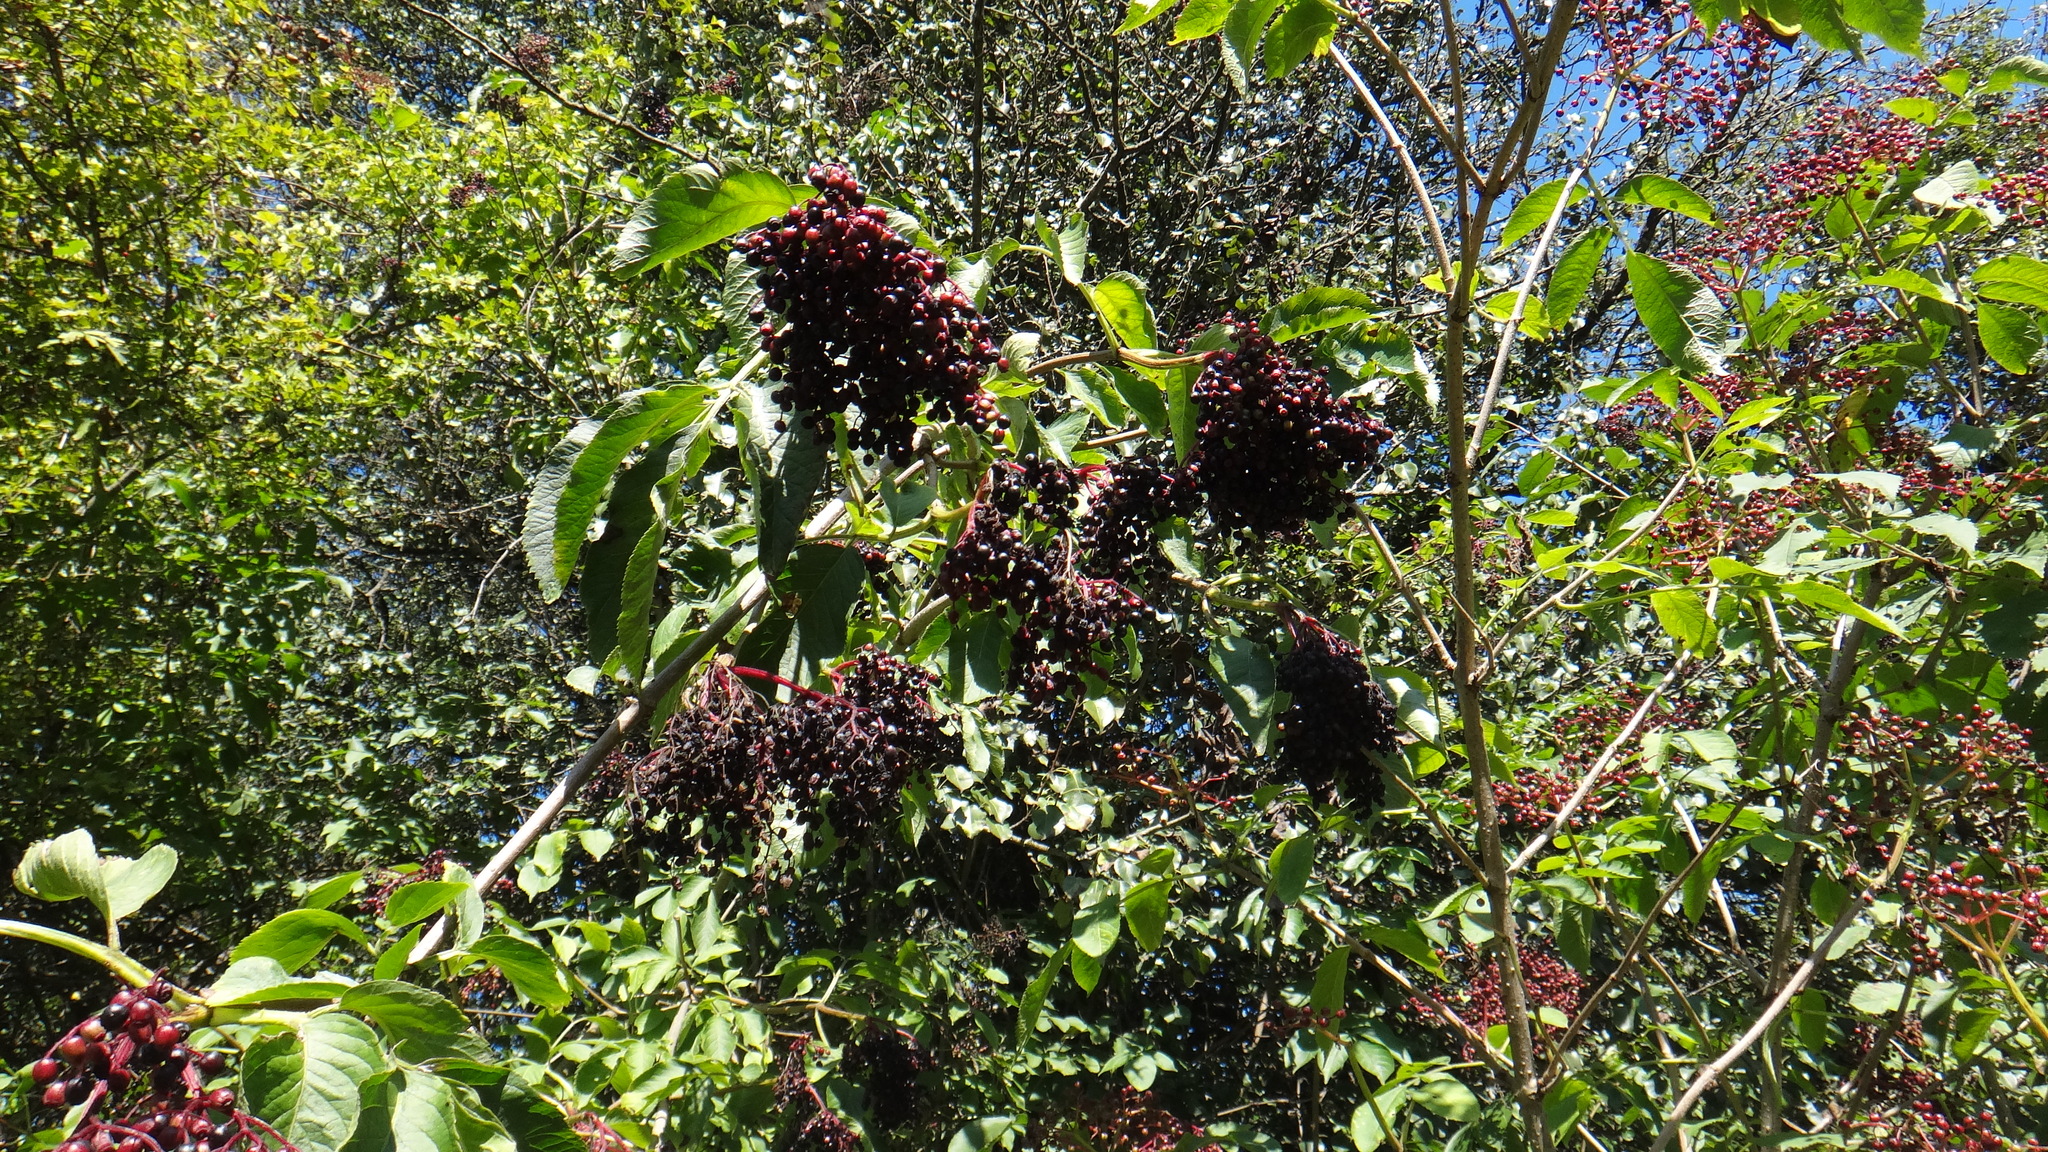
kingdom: Plantae
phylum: Tracheophyta
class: Magnoliopsida
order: Dipsacales
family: Viburnaceae
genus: Sambucus
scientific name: Sambucus nigra
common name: Elder
